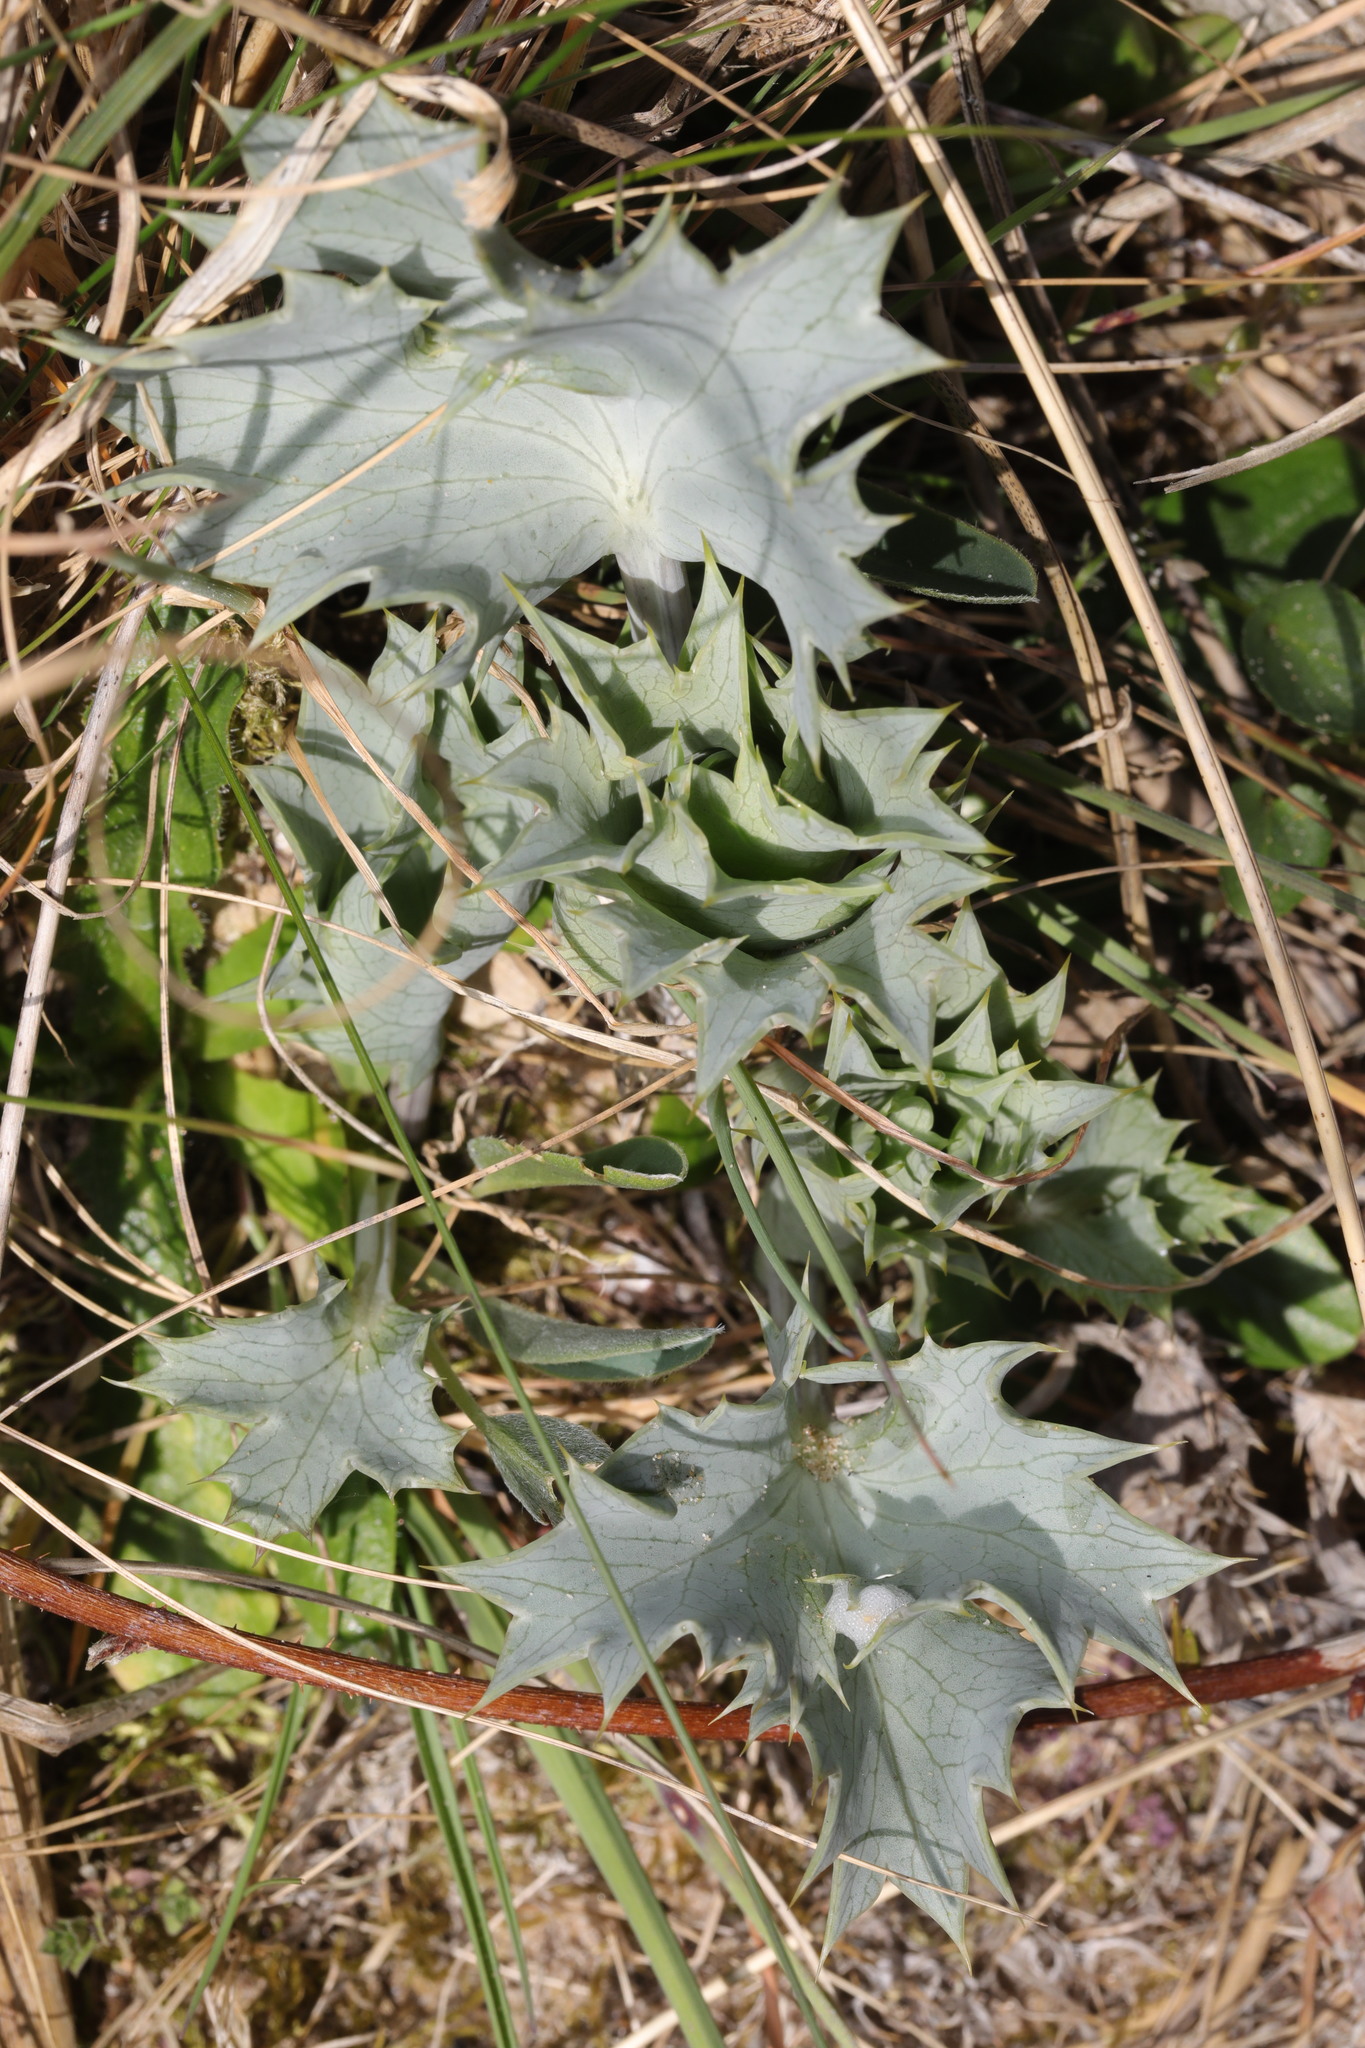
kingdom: Plantae
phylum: Tracheophyta
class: Magnoliopsida
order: Apiales
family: Apiaceae
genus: Eryngium
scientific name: Eryngium maritimum
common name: Sea-holly
